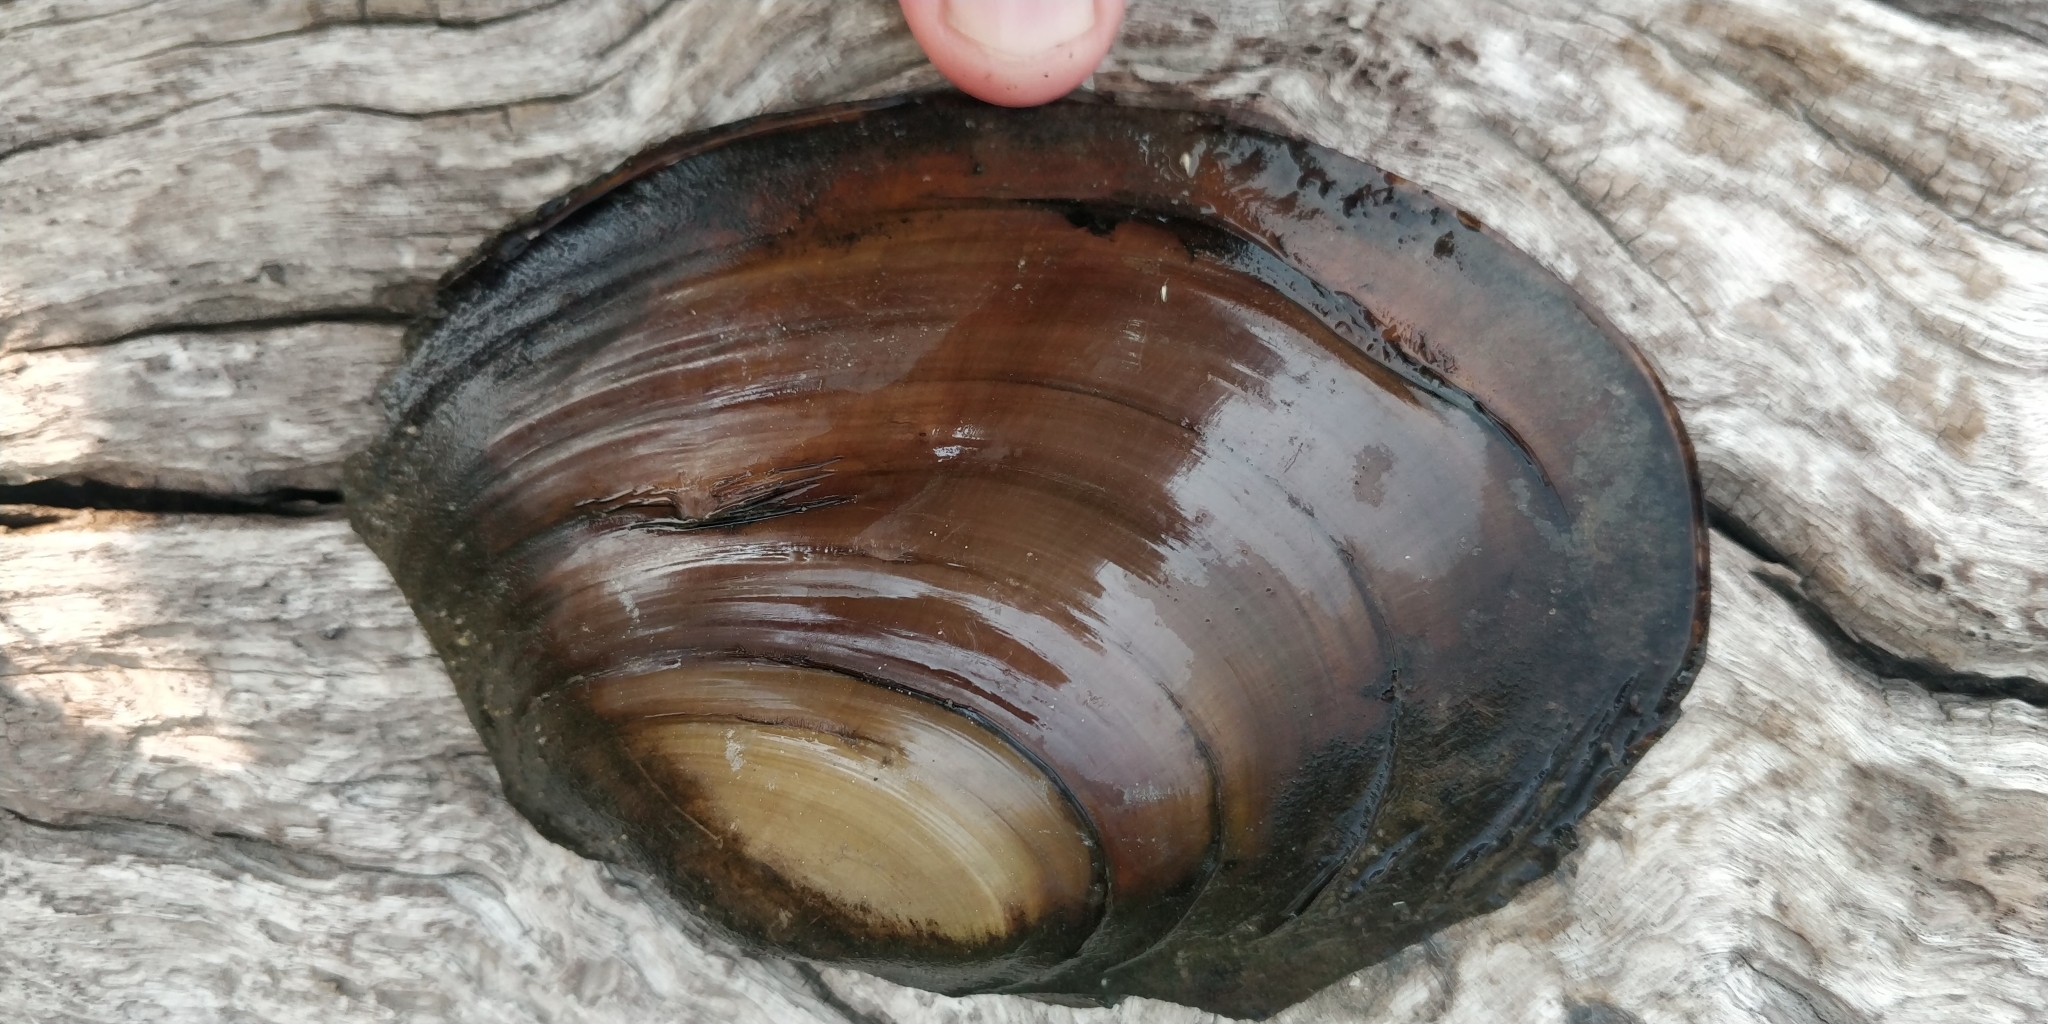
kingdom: Animalia
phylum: Mollusca
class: Bivalvia
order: Unionida
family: Unionidae
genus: Potamilus
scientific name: Potamilus ohiensis
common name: Pink papershell
